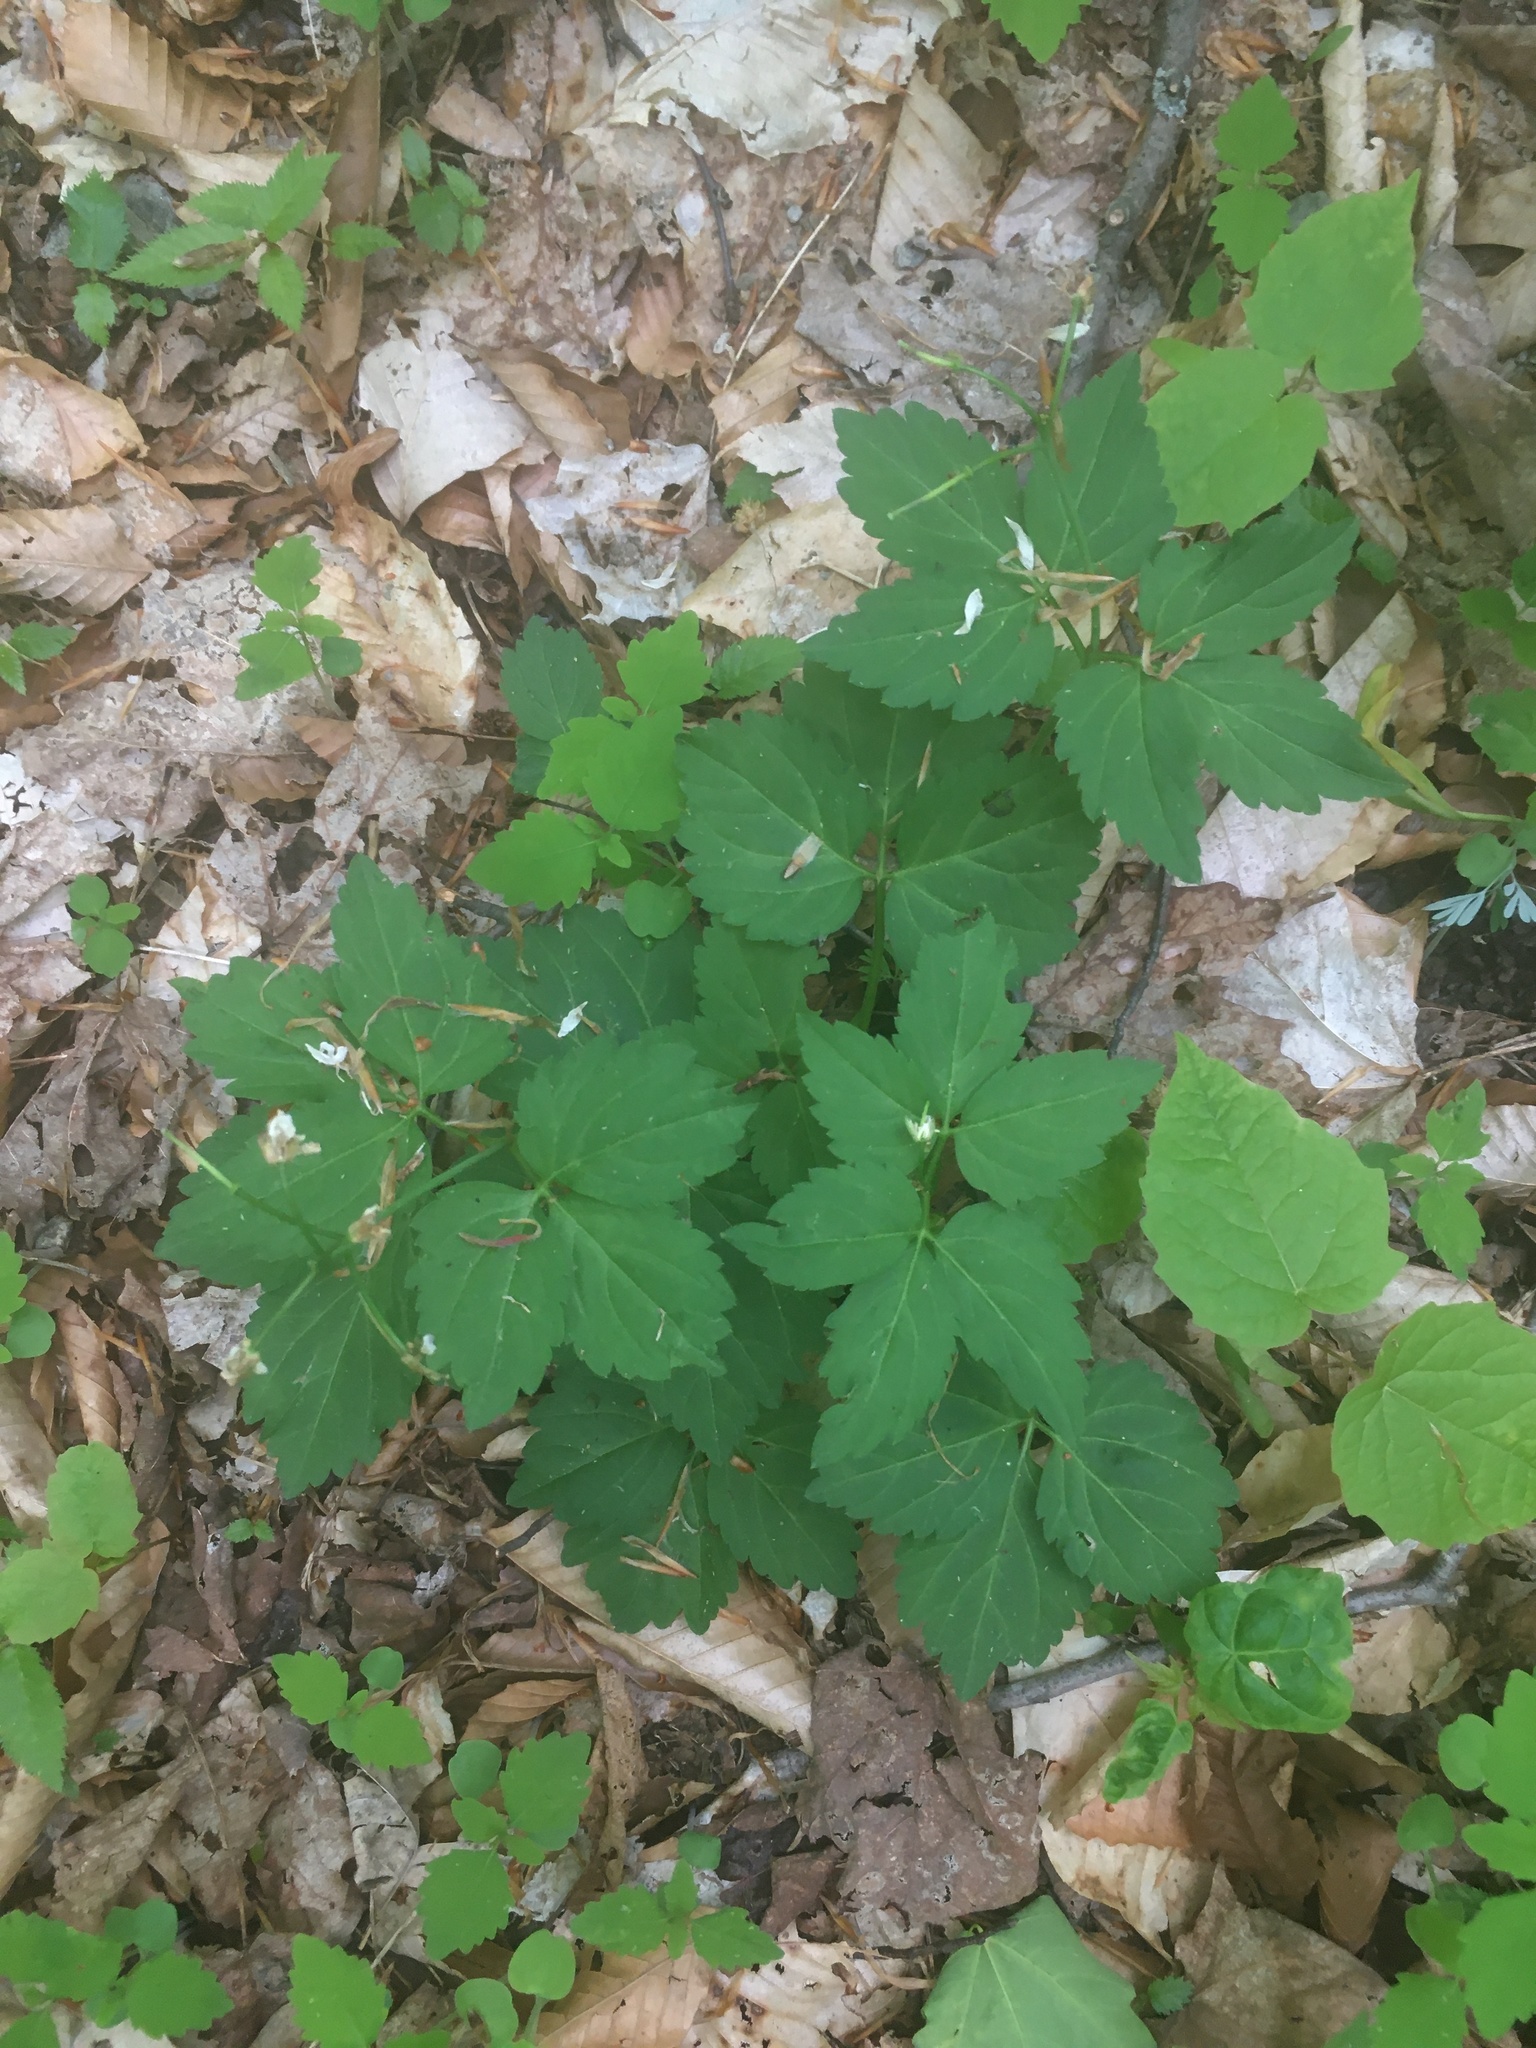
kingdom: Plantae
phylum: Tracheophyta
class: Magnoliopsida
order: Brassicales
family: Brassicaceae
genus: Cardamine
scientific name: Cardamine diphylla
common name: Broad-leaved toothwort
